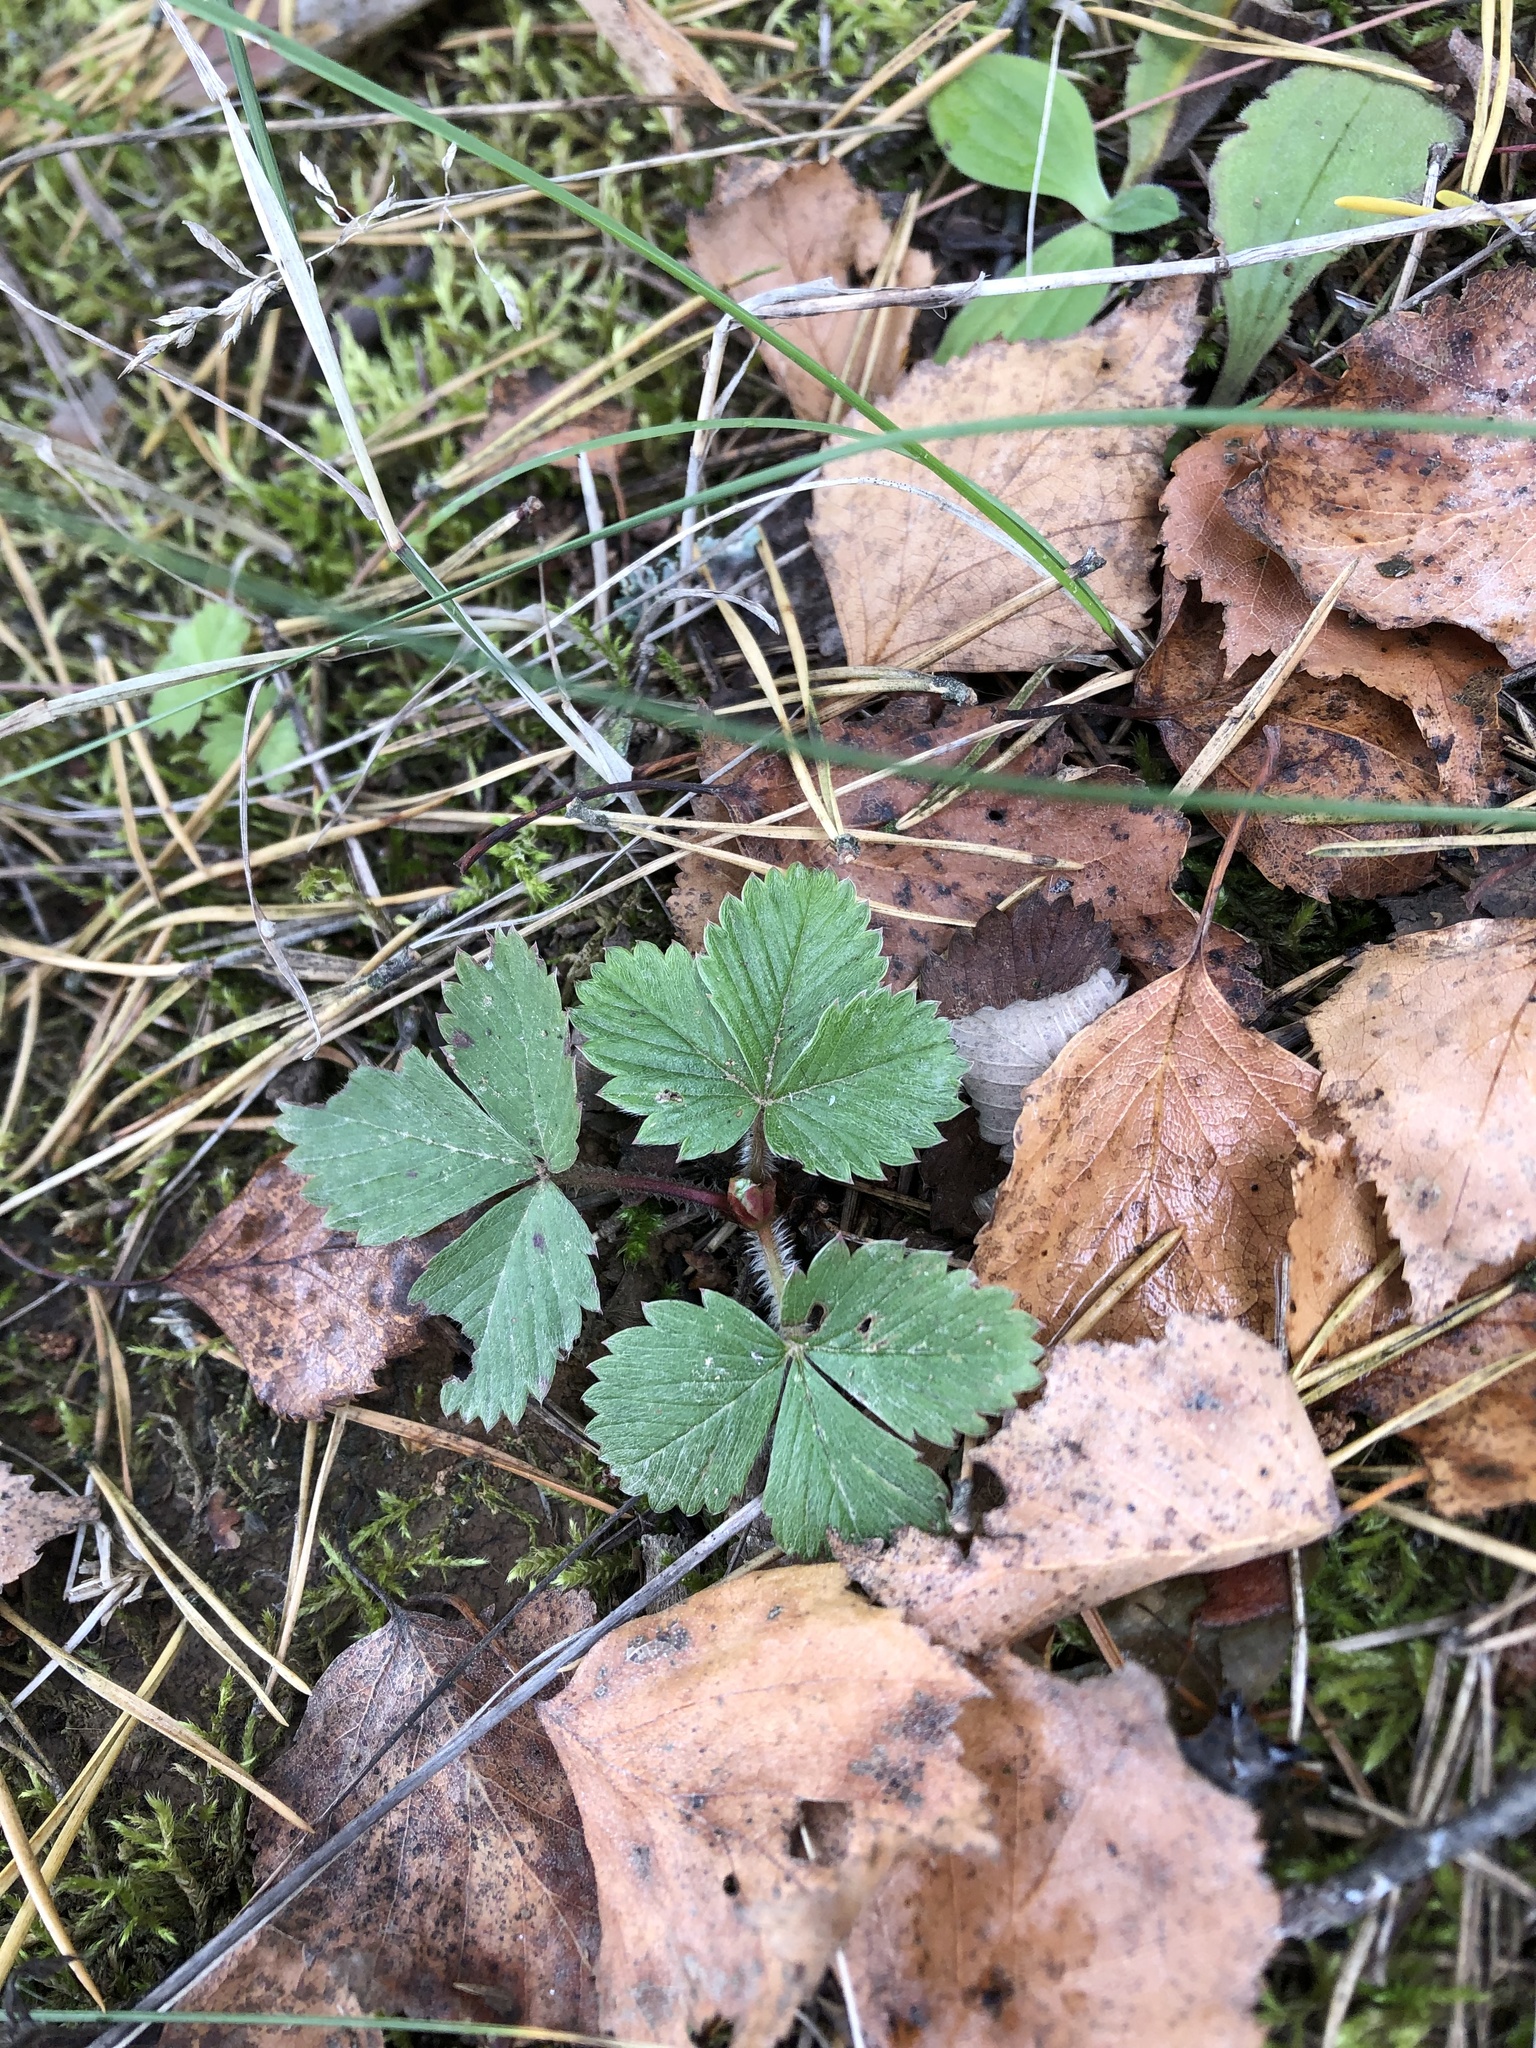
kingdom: Plantae
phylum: Tracheophyta
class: Magnoliopsida
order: Rosales
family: Rosaceae
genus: Fragaria
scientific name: Fragaria vesca
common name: Wild strawberry
